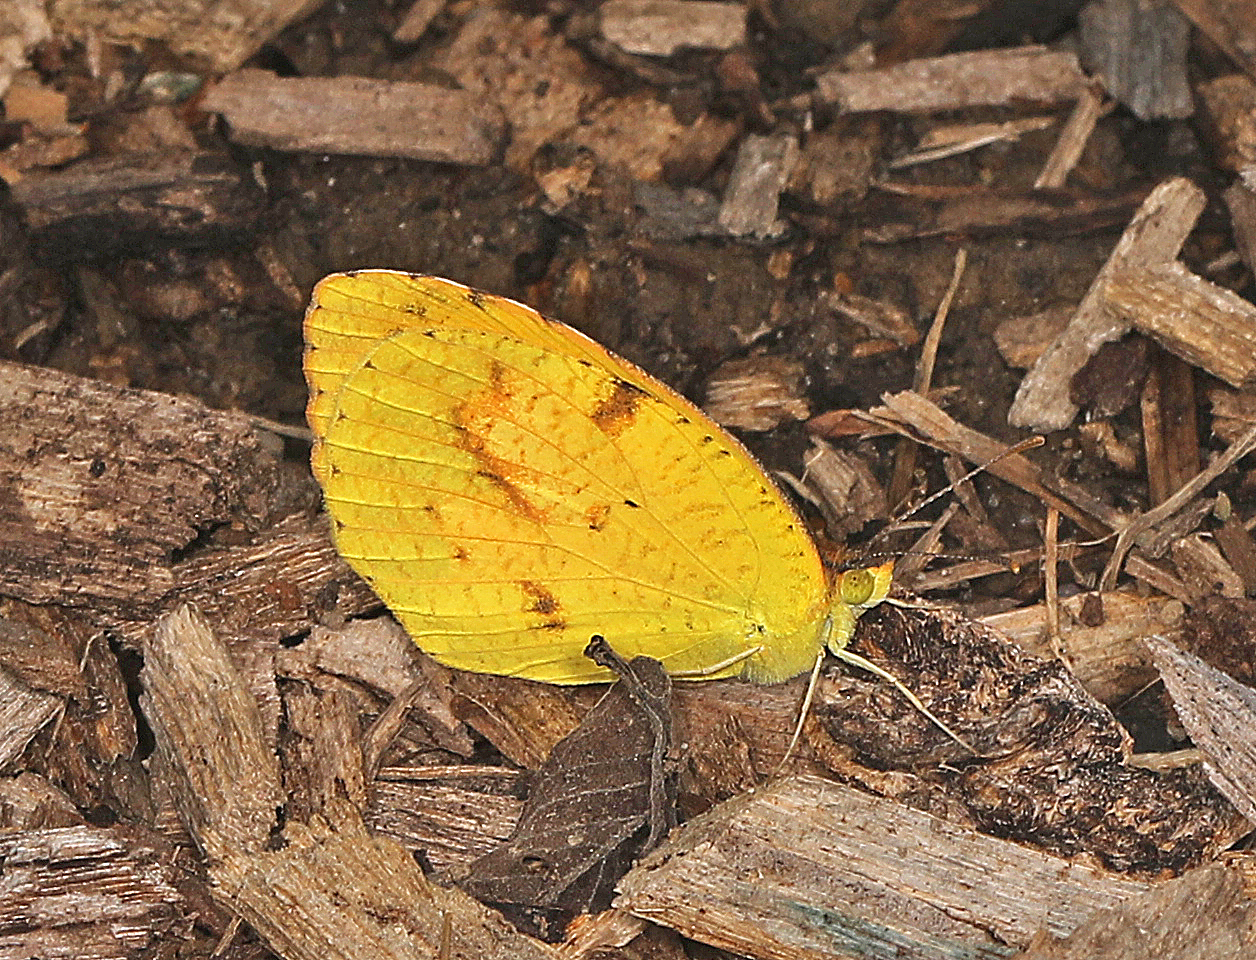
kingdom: Animalia
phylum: Arthropoda
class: Insecta
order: Lepidoptera
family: Pieridae
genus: Abaeis
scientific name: Abaeis nicippe
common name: Sleepy orange
